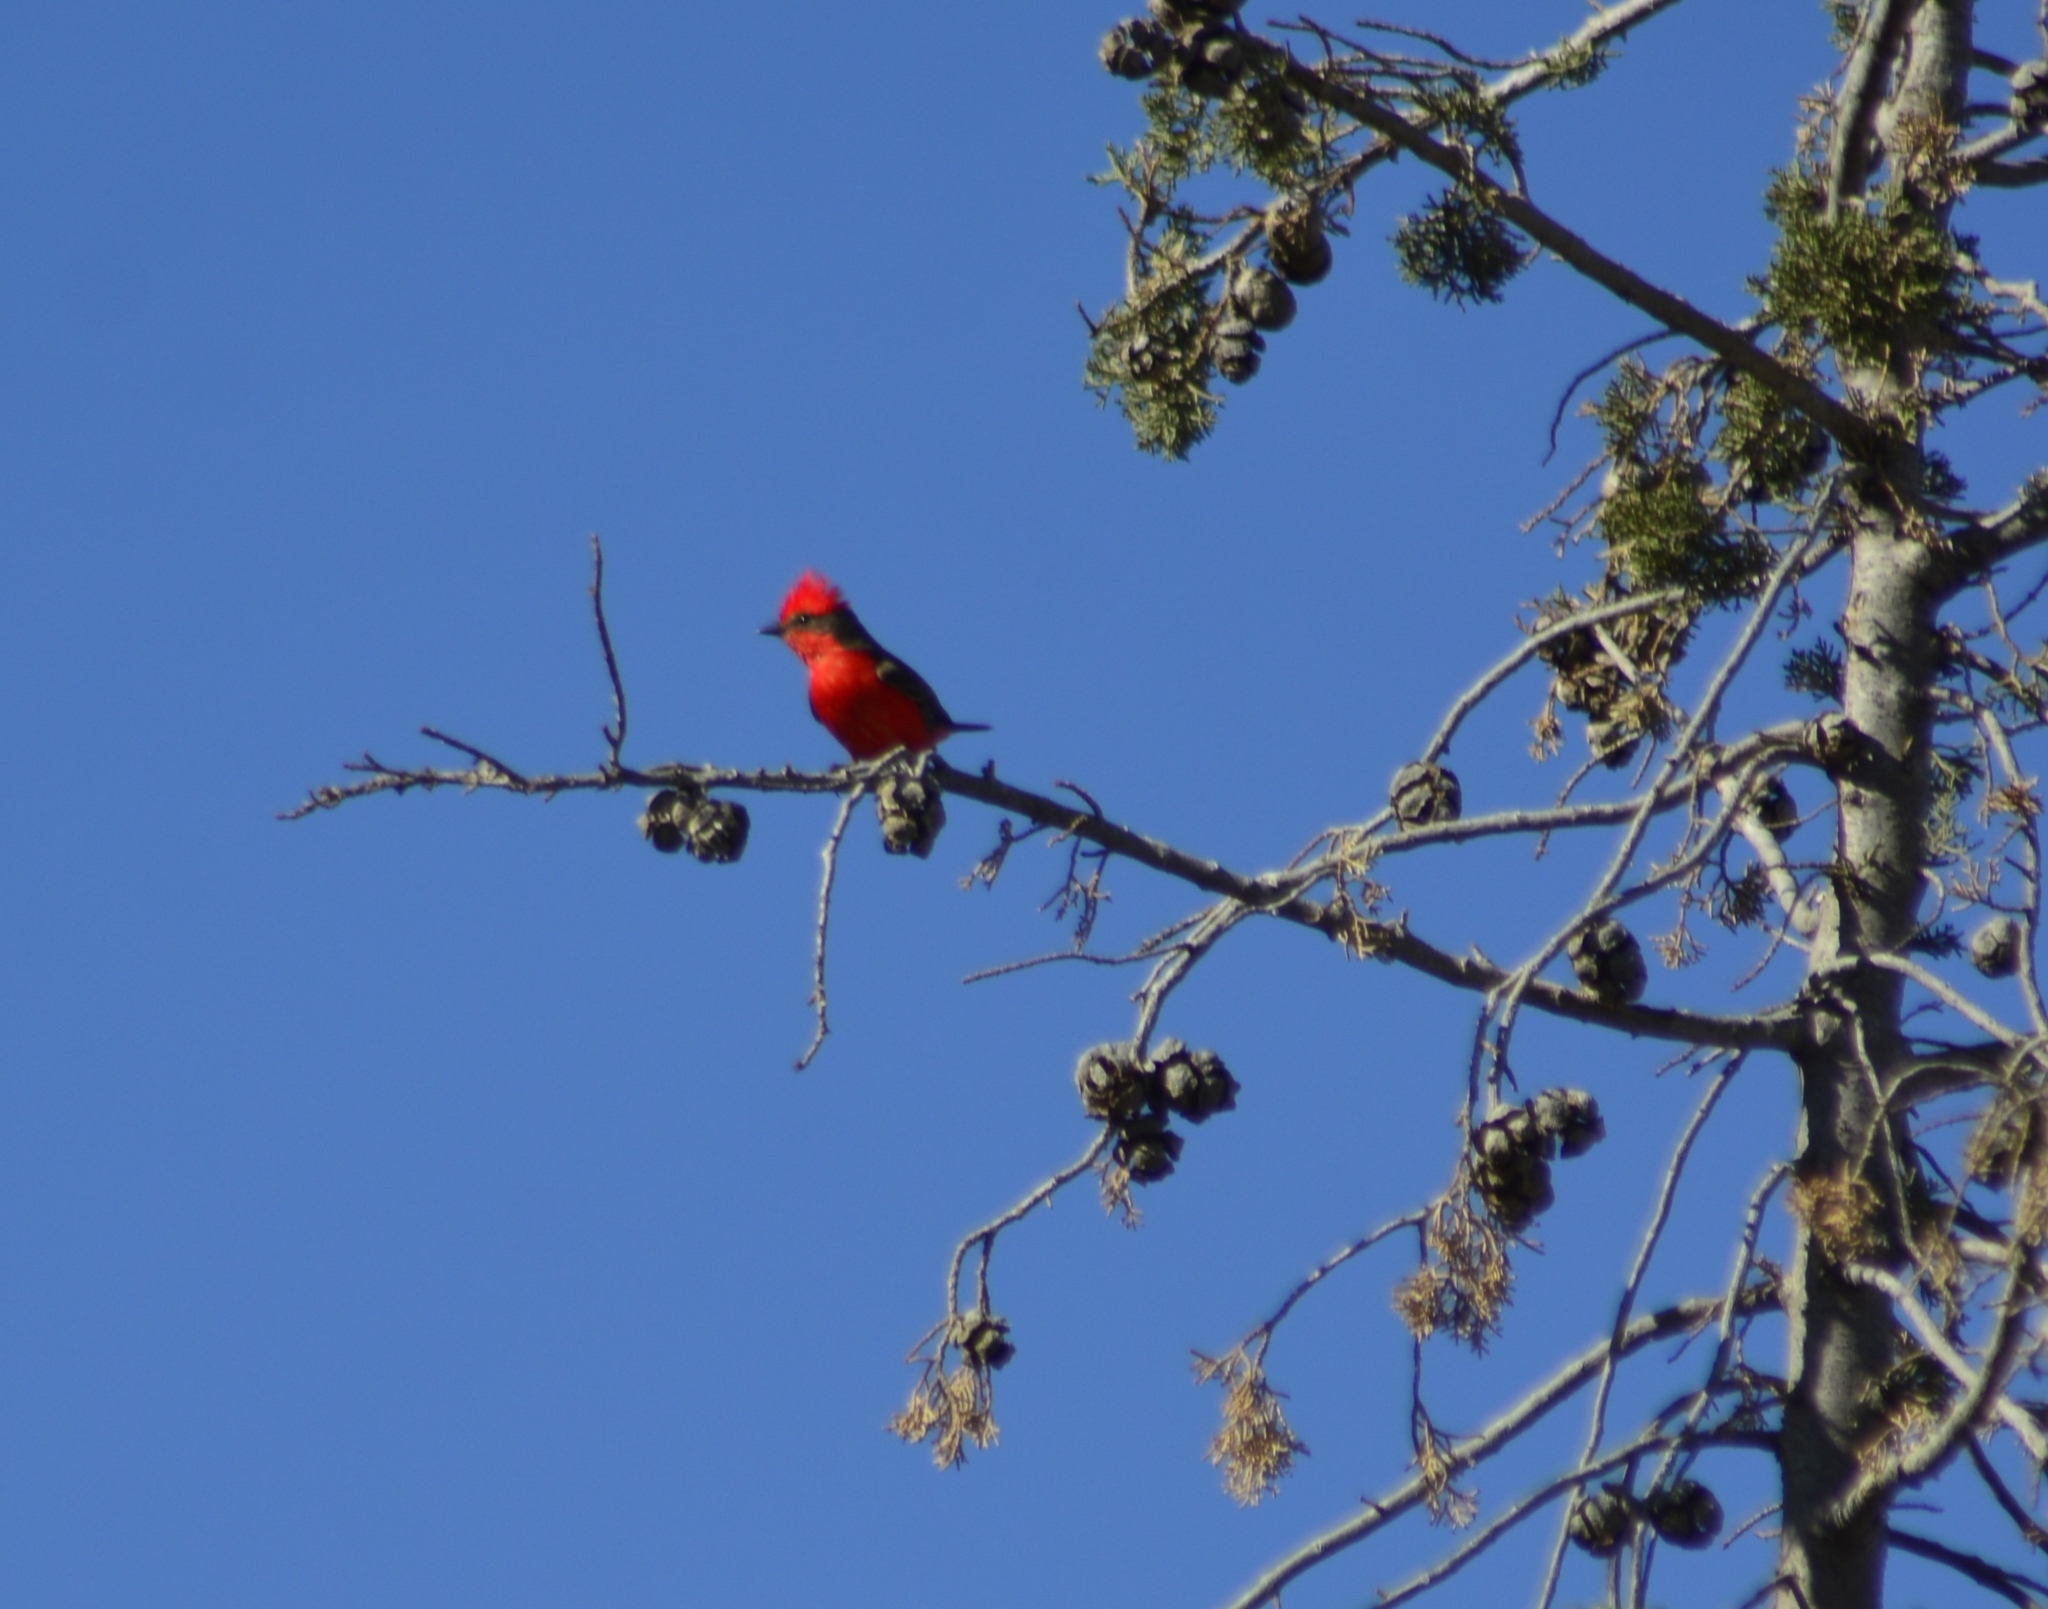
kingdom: Animalia
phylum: Chordata
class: Aves
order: Passeriformes
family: Tyrannidae
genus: Pyrocephalus
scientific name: Pyrocephalus rubinus
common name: Vermilion flycatcher
